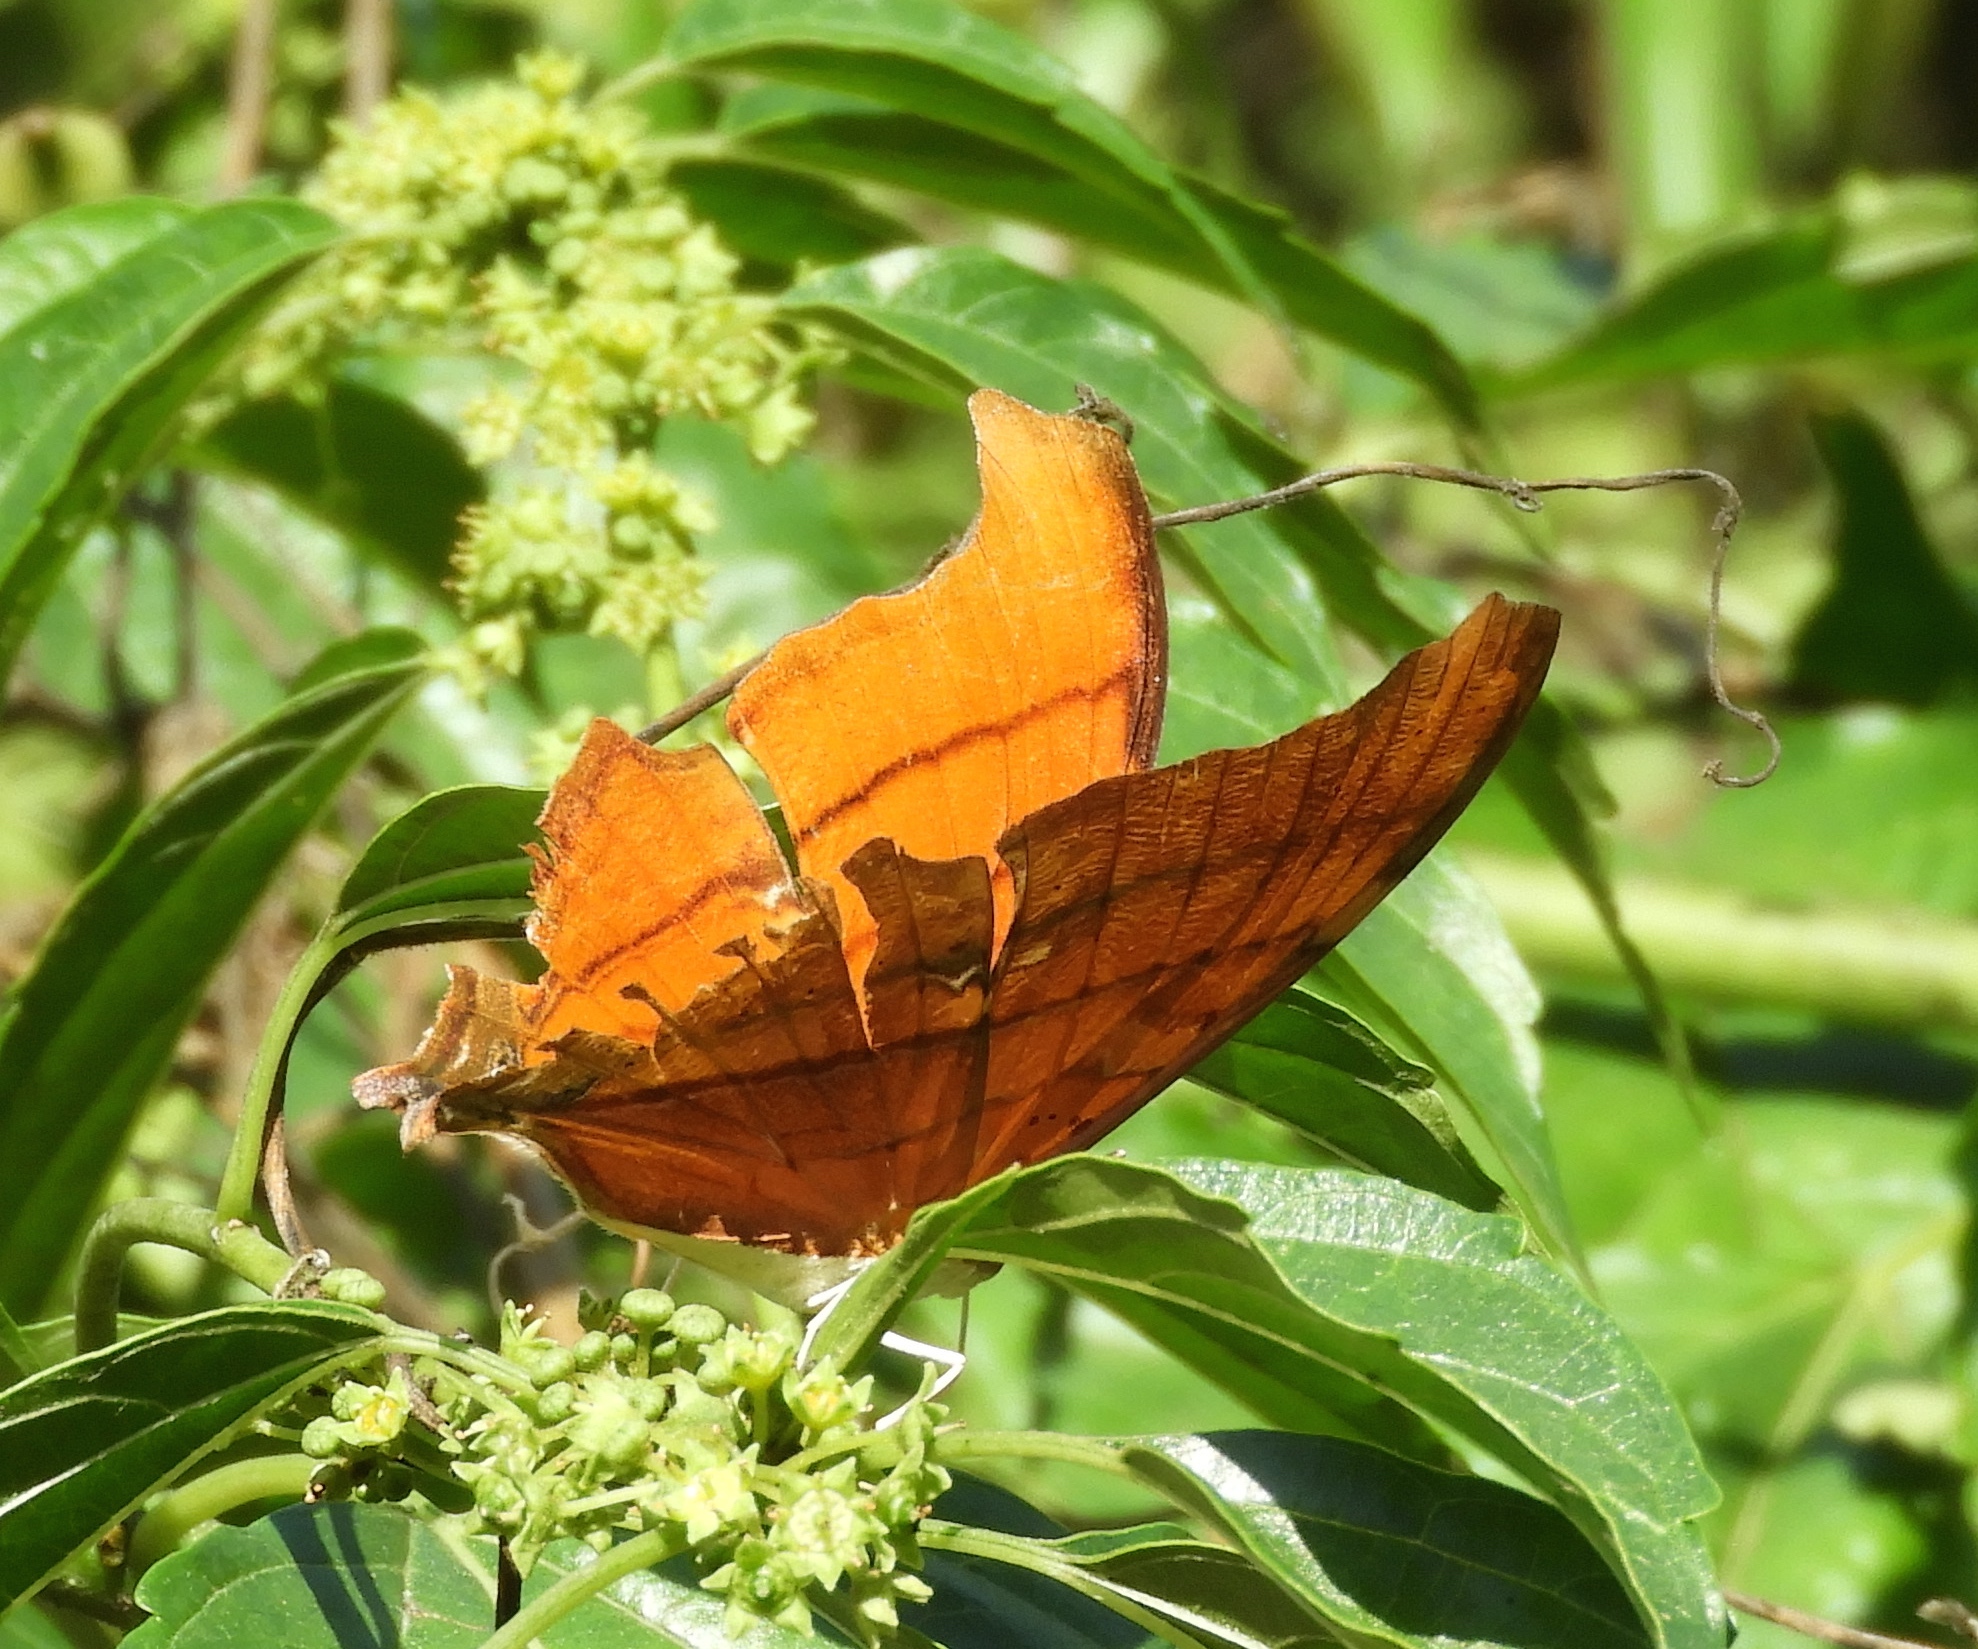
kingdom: Animalia
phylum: Arthropoda
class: Insecta
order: Lepidoptera
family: Nymphalidae
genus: Marpesia
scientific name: Marpesia petreus
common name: Red dagger wing
